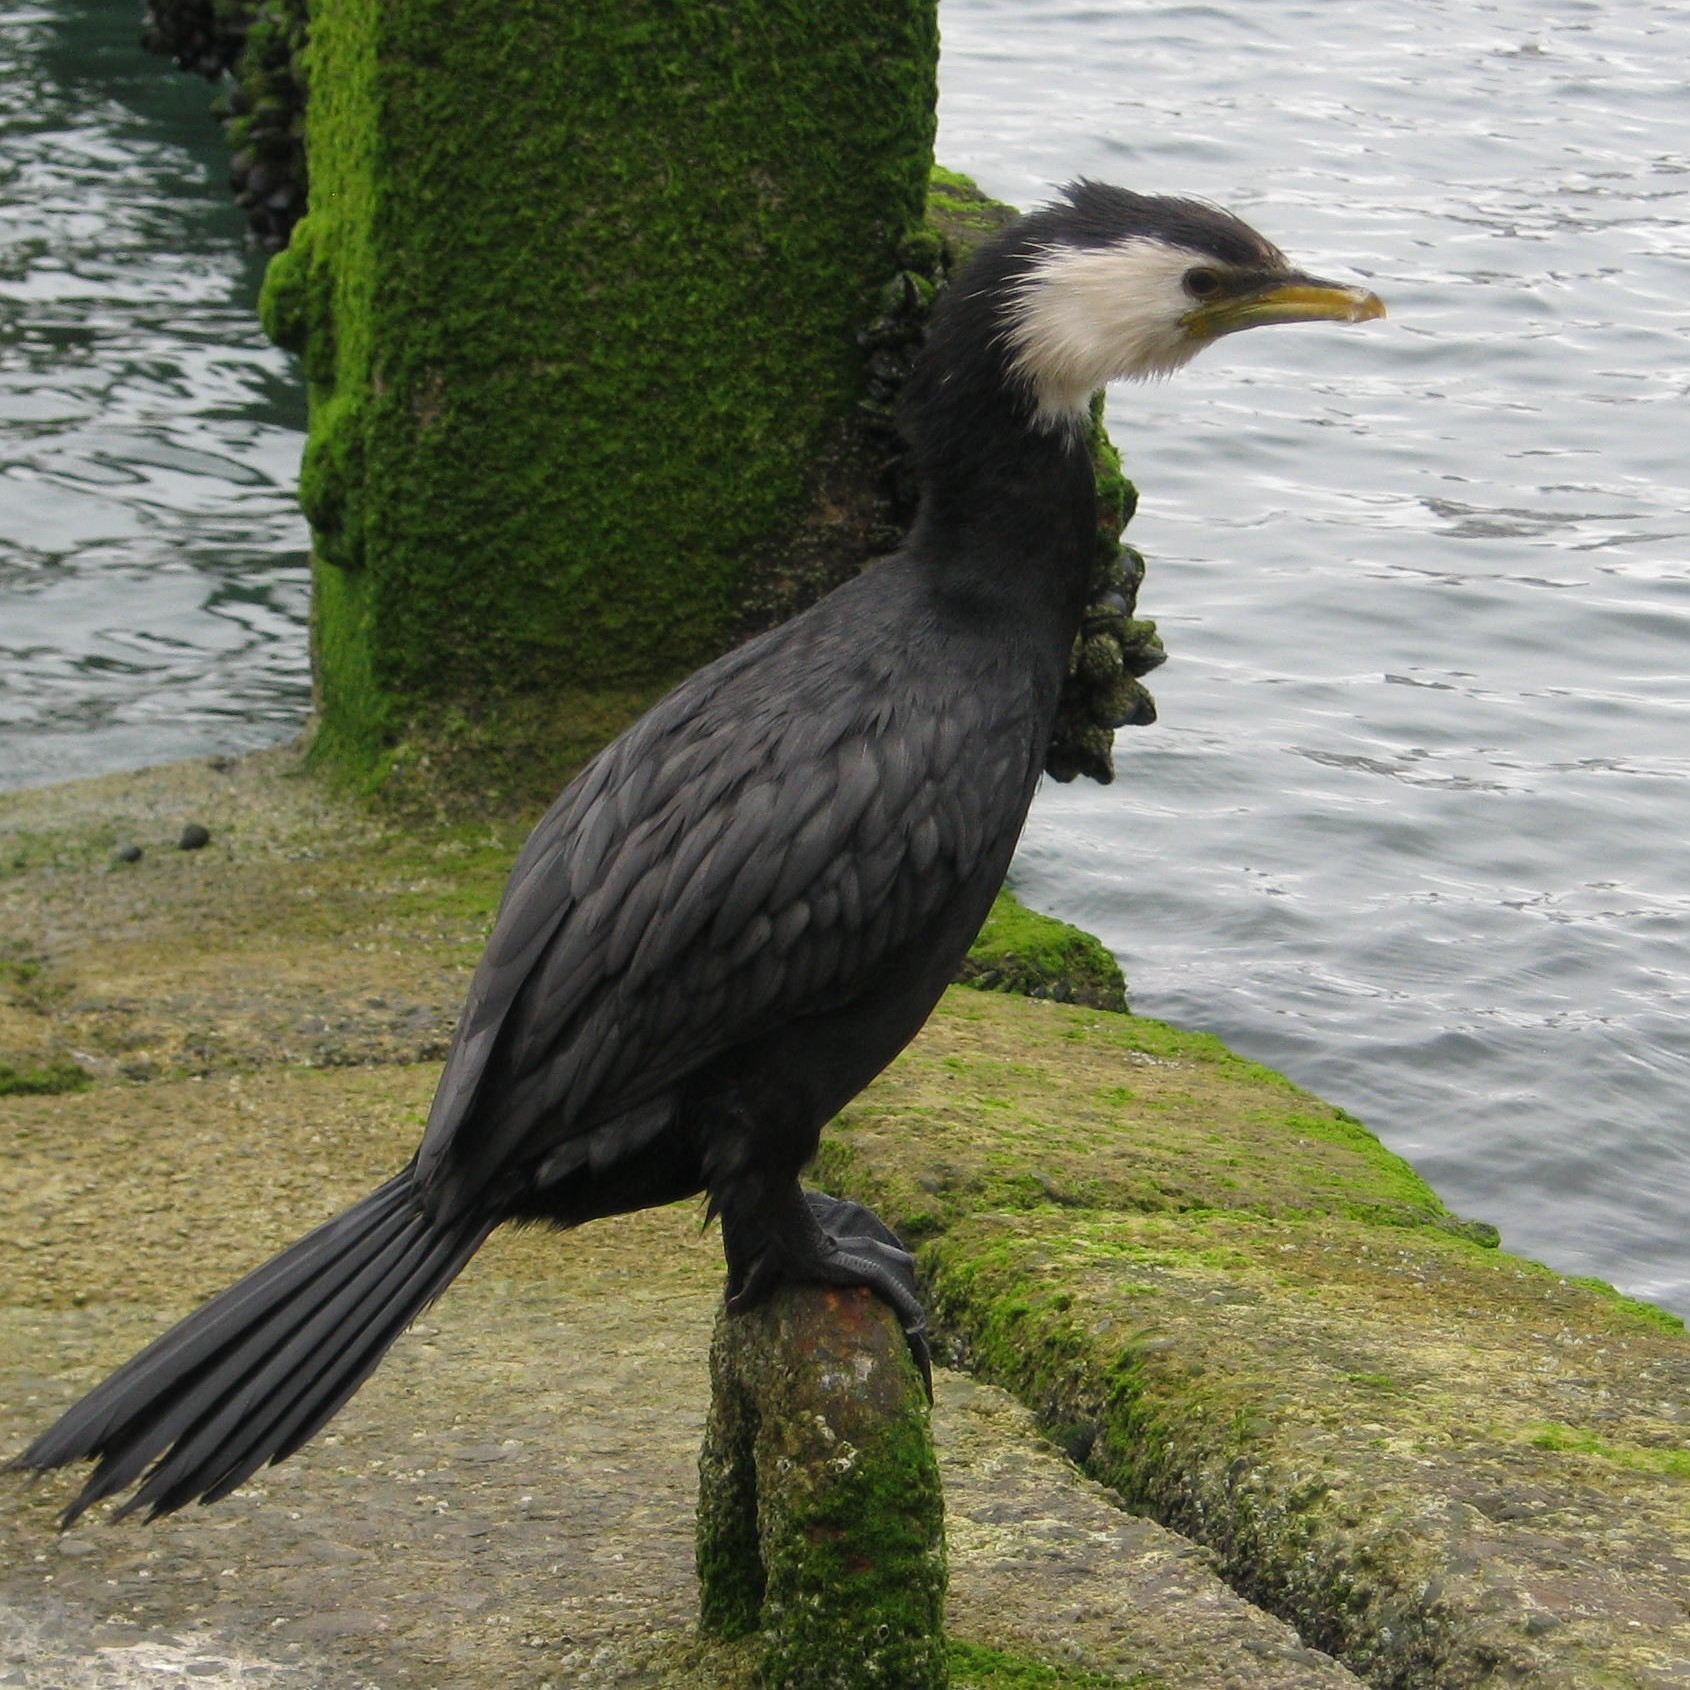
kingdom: Animalia
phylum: Chordata
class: Aves
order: Suliformes
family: Phalacrocoracidae
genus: Microcarbo
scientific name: Microcarbo melanoleucos
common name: Little pied cormorant
